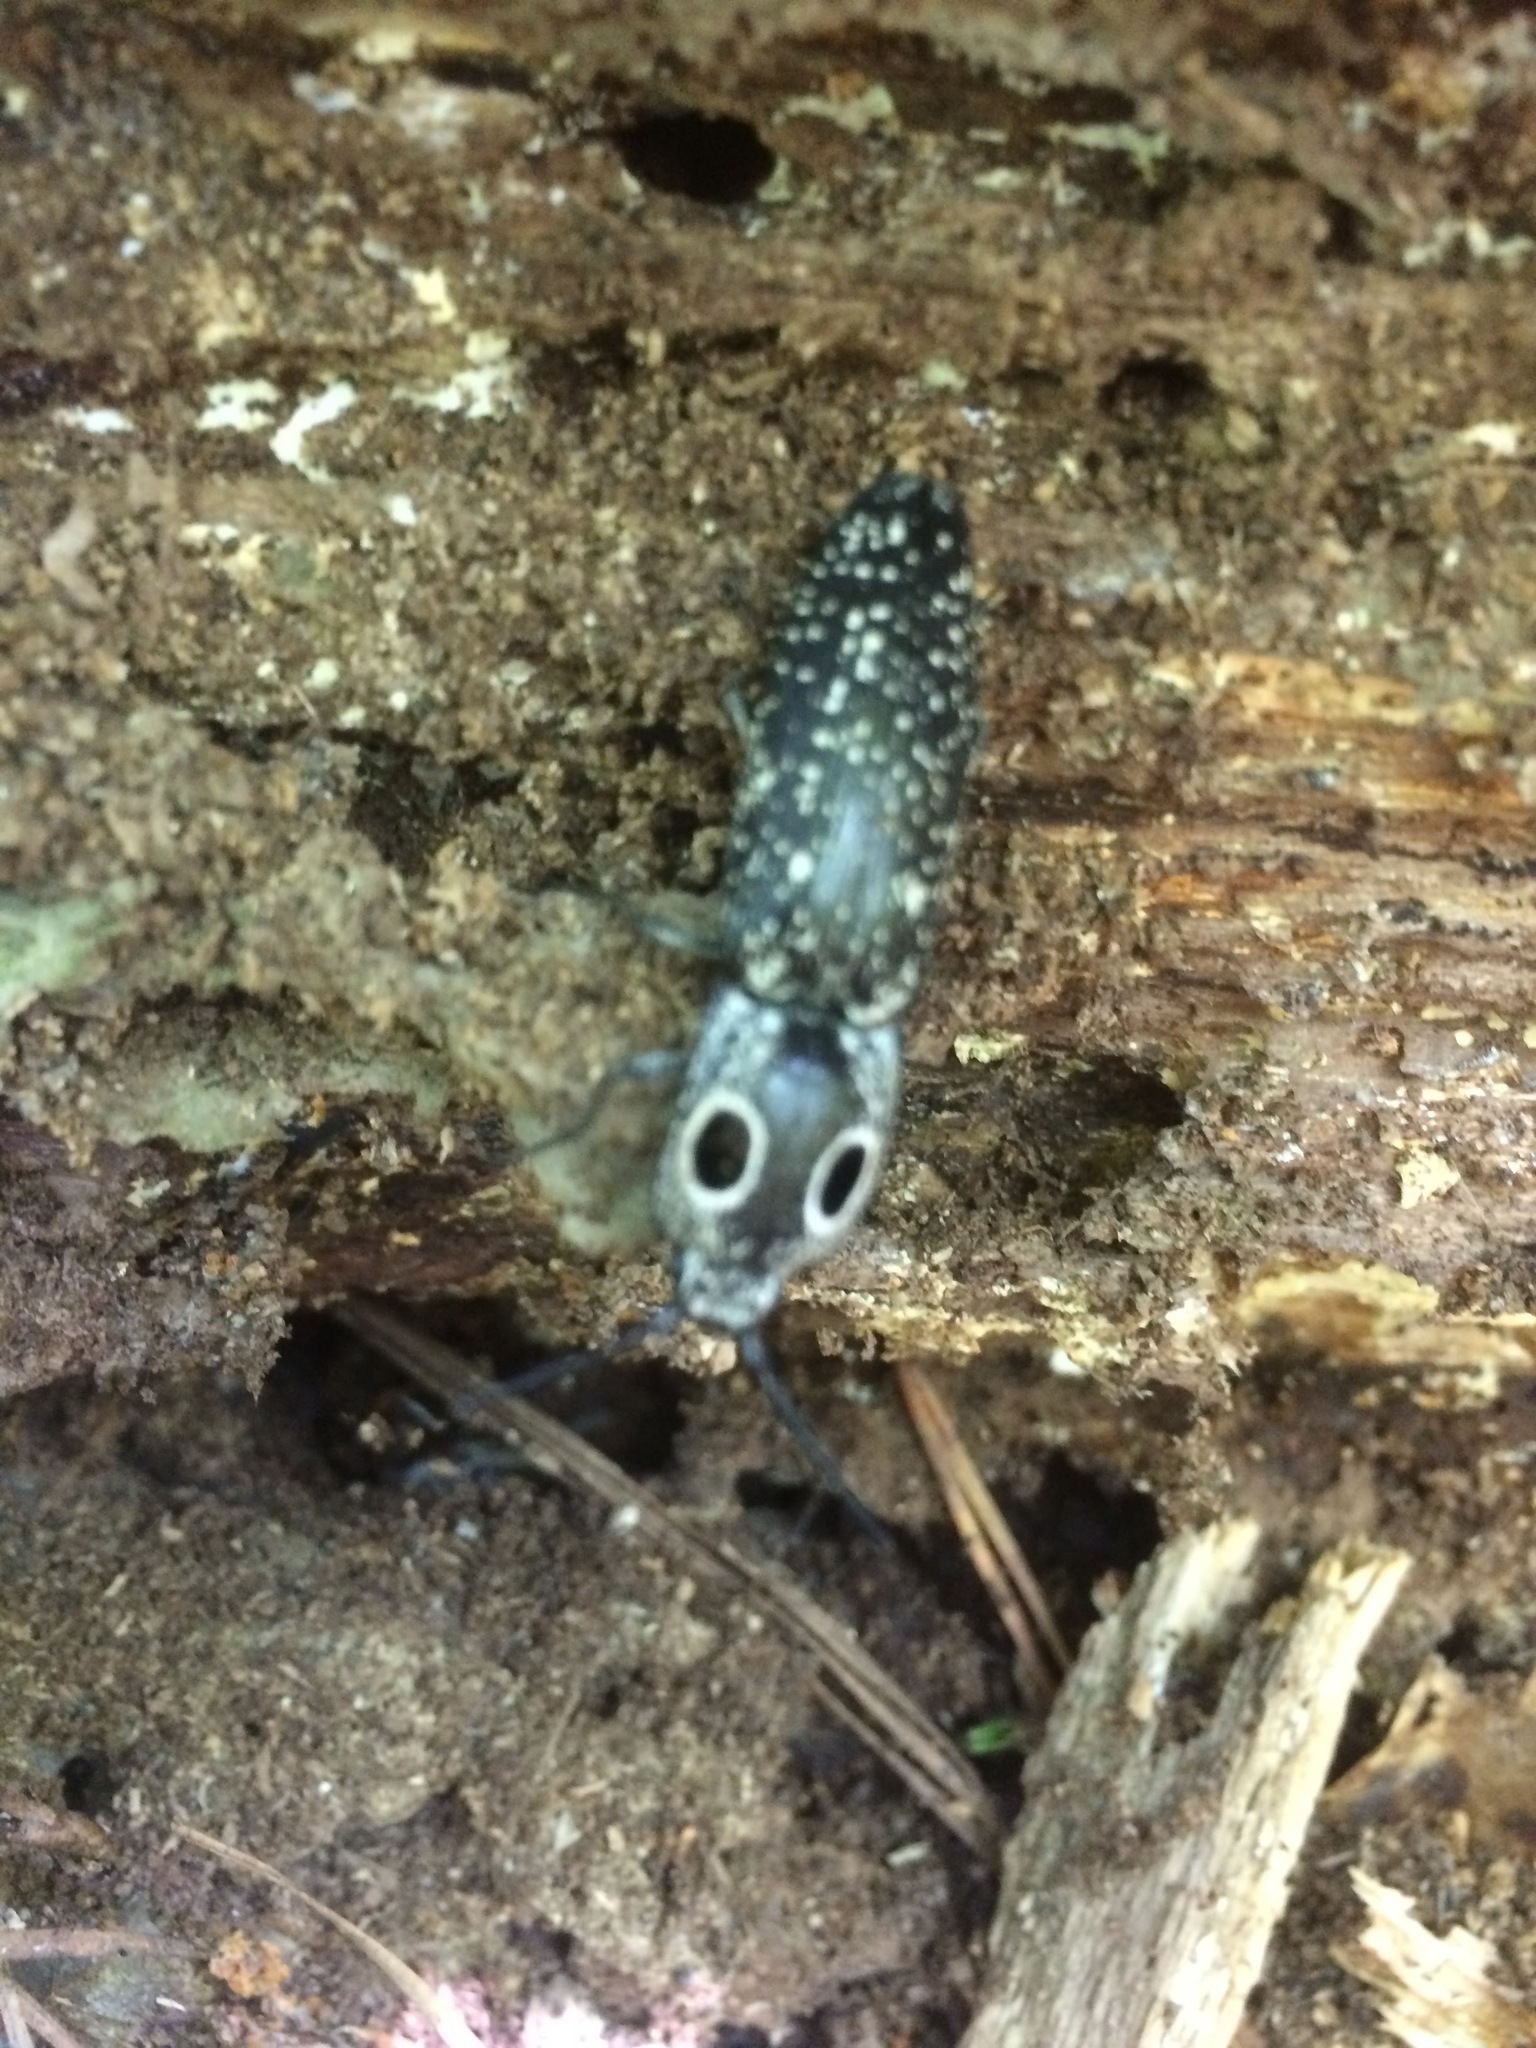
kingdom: Animalia
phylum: Arthropoda
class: Insecta
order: Coleoptera
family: Elateridae
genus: Alaus
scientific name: Alaus oculatus
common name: Eastern eyed click beetle
